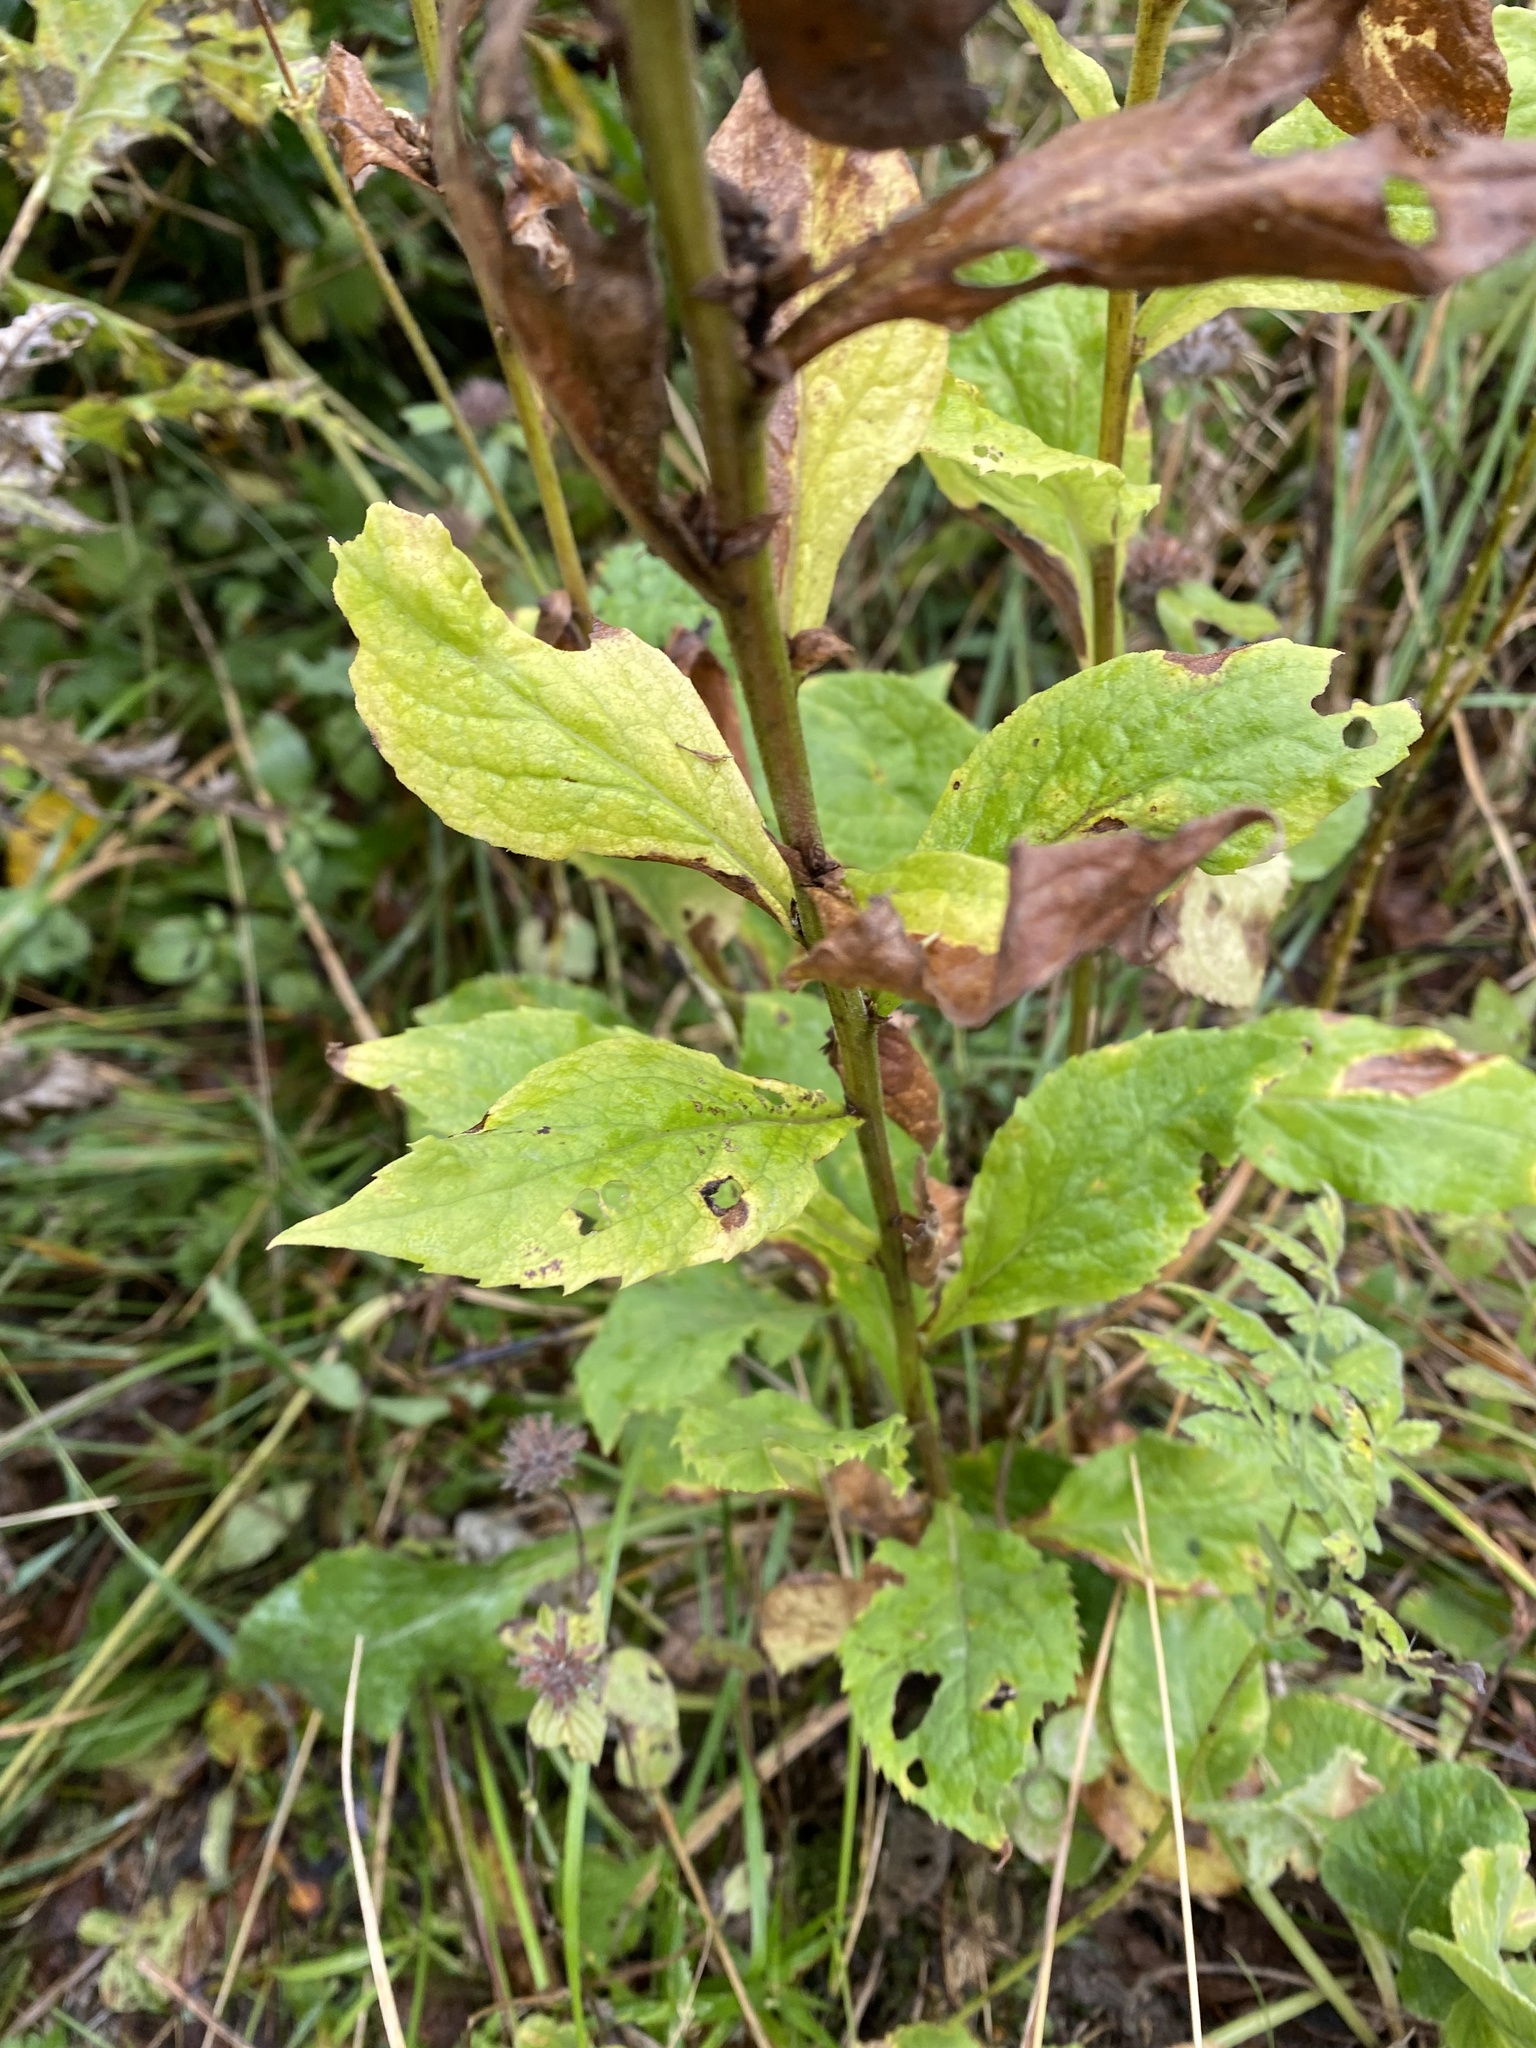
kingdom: Plantae
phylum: Tracheophyta
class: Magnoliopsida
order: Asterales
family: Asteraceae
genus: Solidago
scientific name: Solidago virgaurea
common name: Goldenrod
